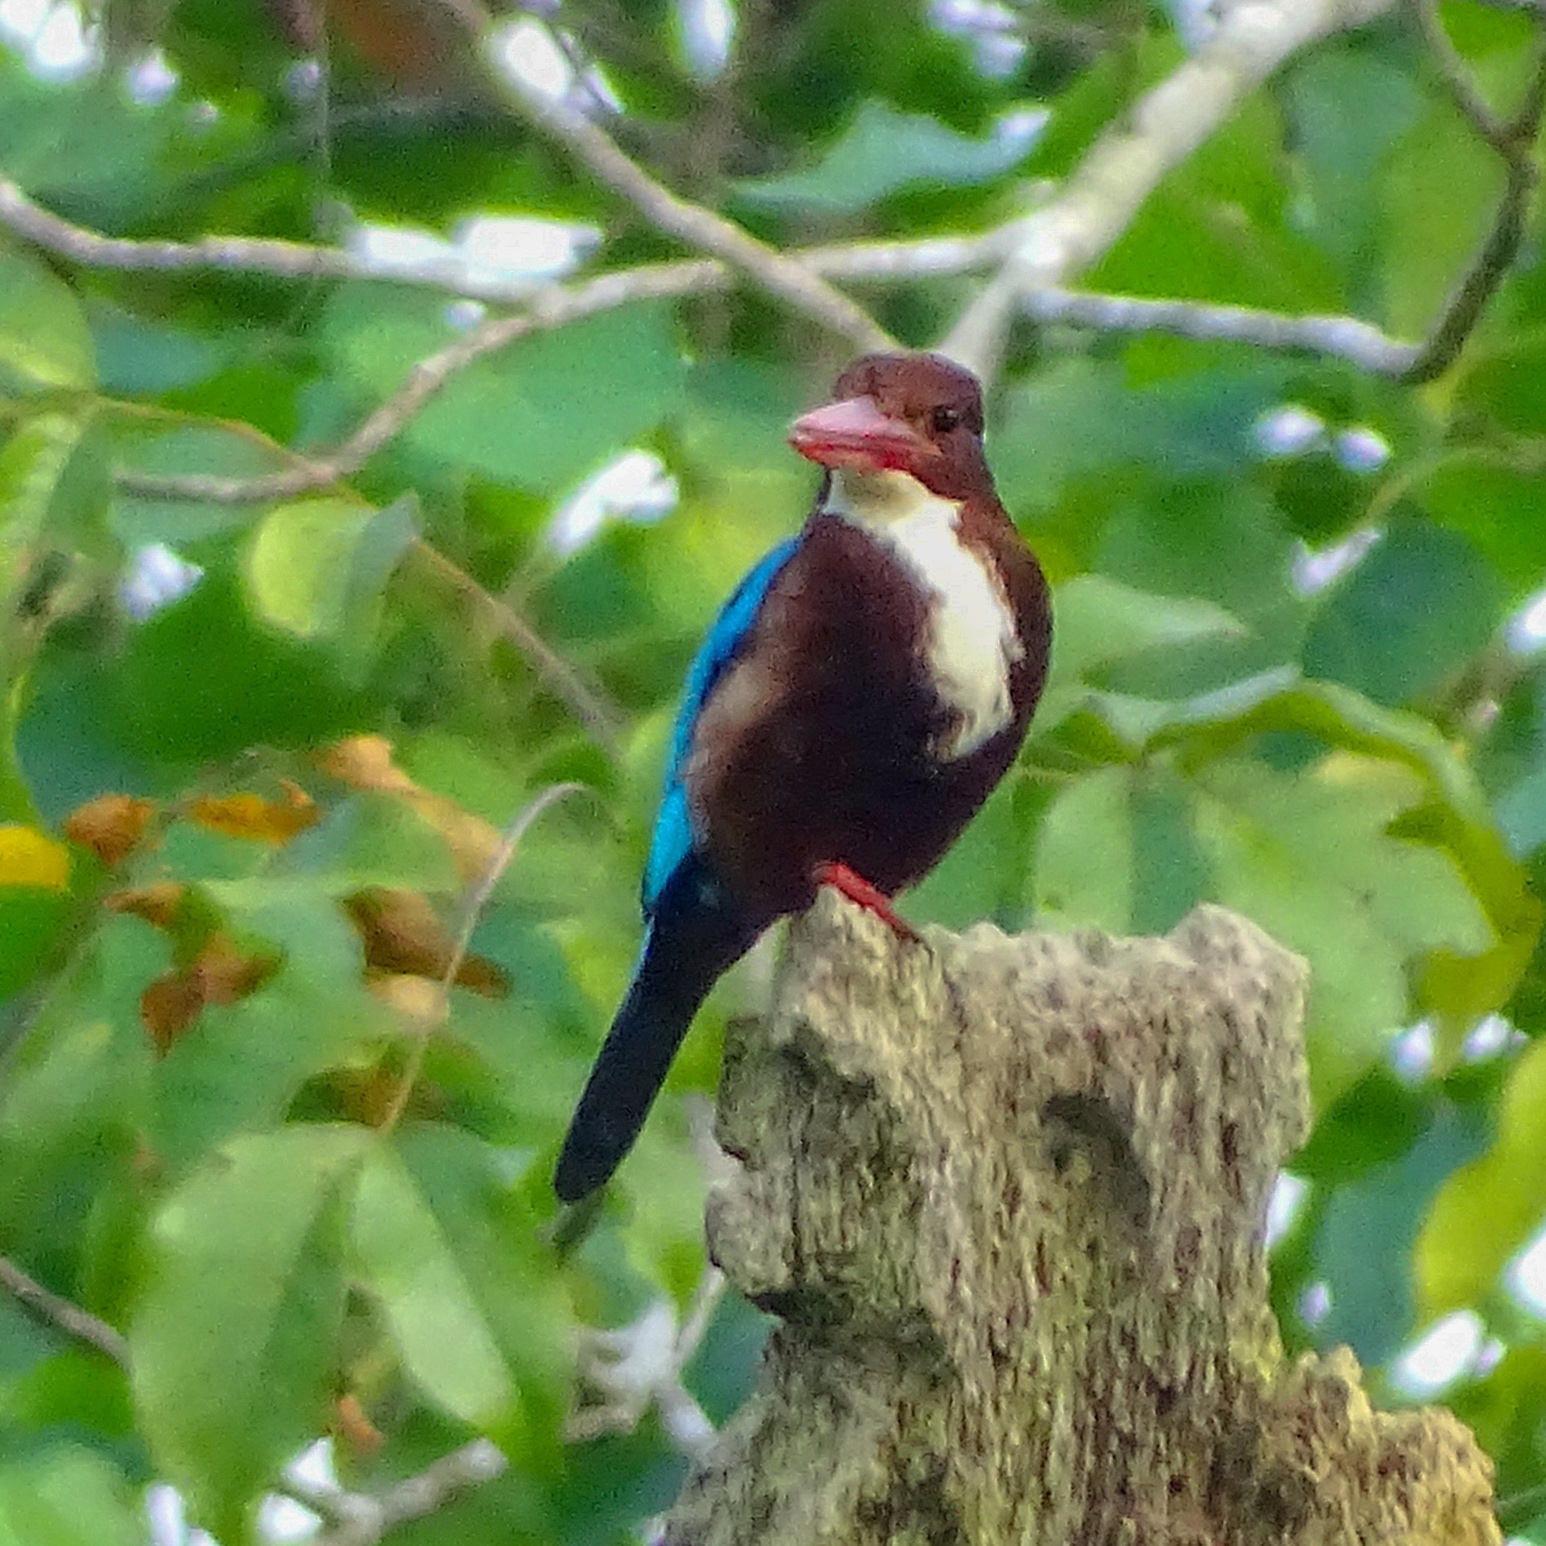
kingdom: Animalia
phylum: Chordata
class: Aves
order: Coraciiformes
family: Alcedinidae
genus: Halcyon
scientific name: Halcyon smyrnensis
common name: White-throated kingfisher
